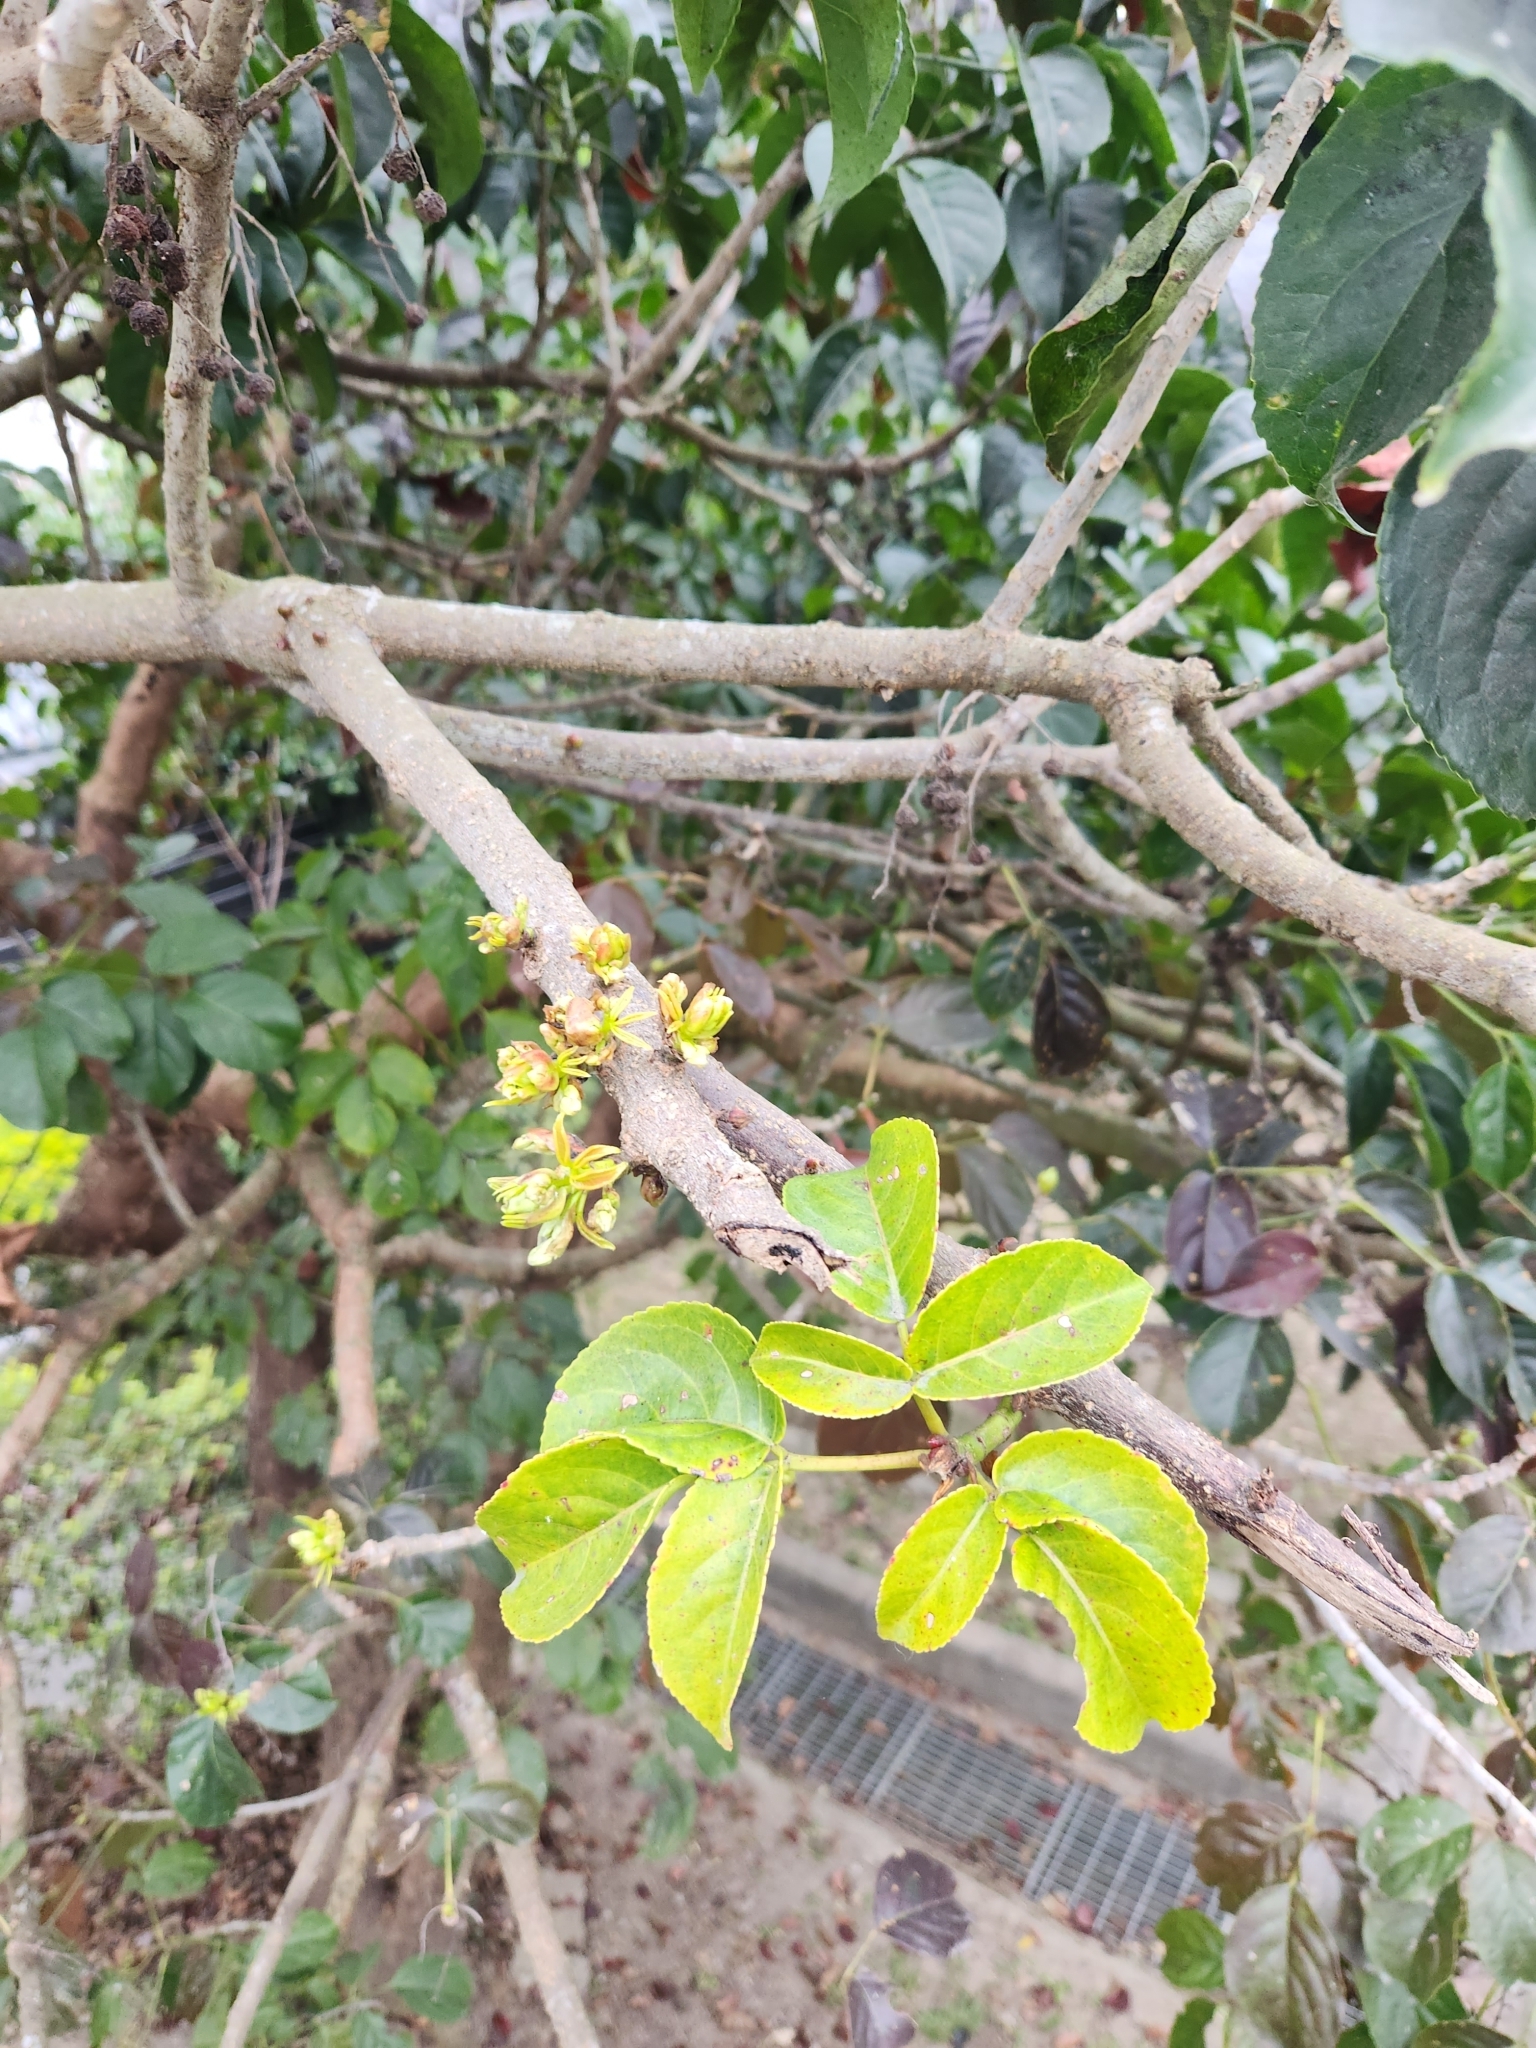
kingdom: Plantae
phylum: Tracheophyta
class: Magnoliopsida
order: Malpighiales
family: Phyllanthaceae
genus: Bischofia
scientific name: Bischofia javanica
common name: Javanese bishopwood
